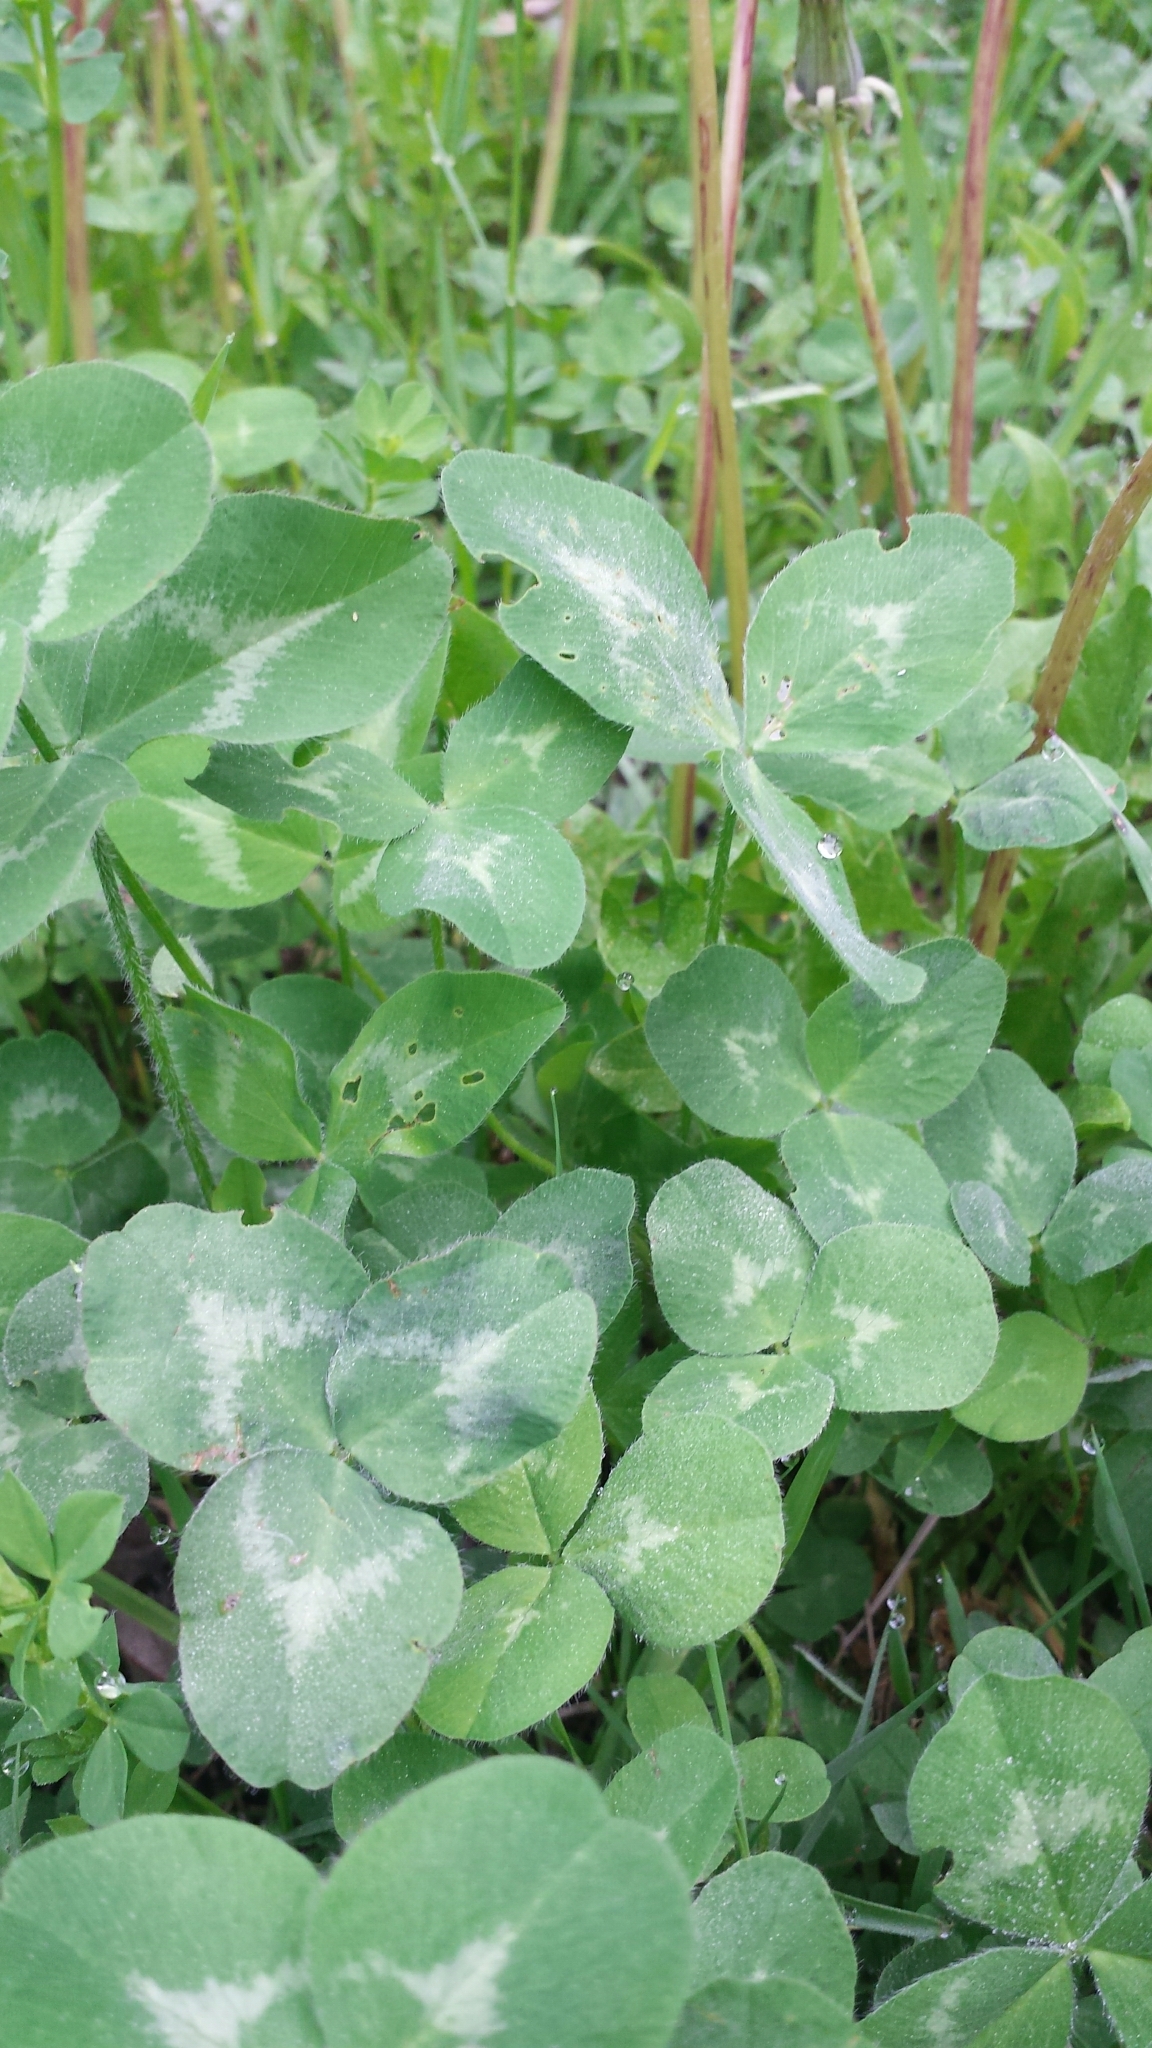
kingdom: Plantae
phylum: Tracheophyta
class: Magnoliopsida
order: Fabales
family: Fabaceae
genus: Trifolium
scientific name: Trifolium pratense
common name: Red clover
